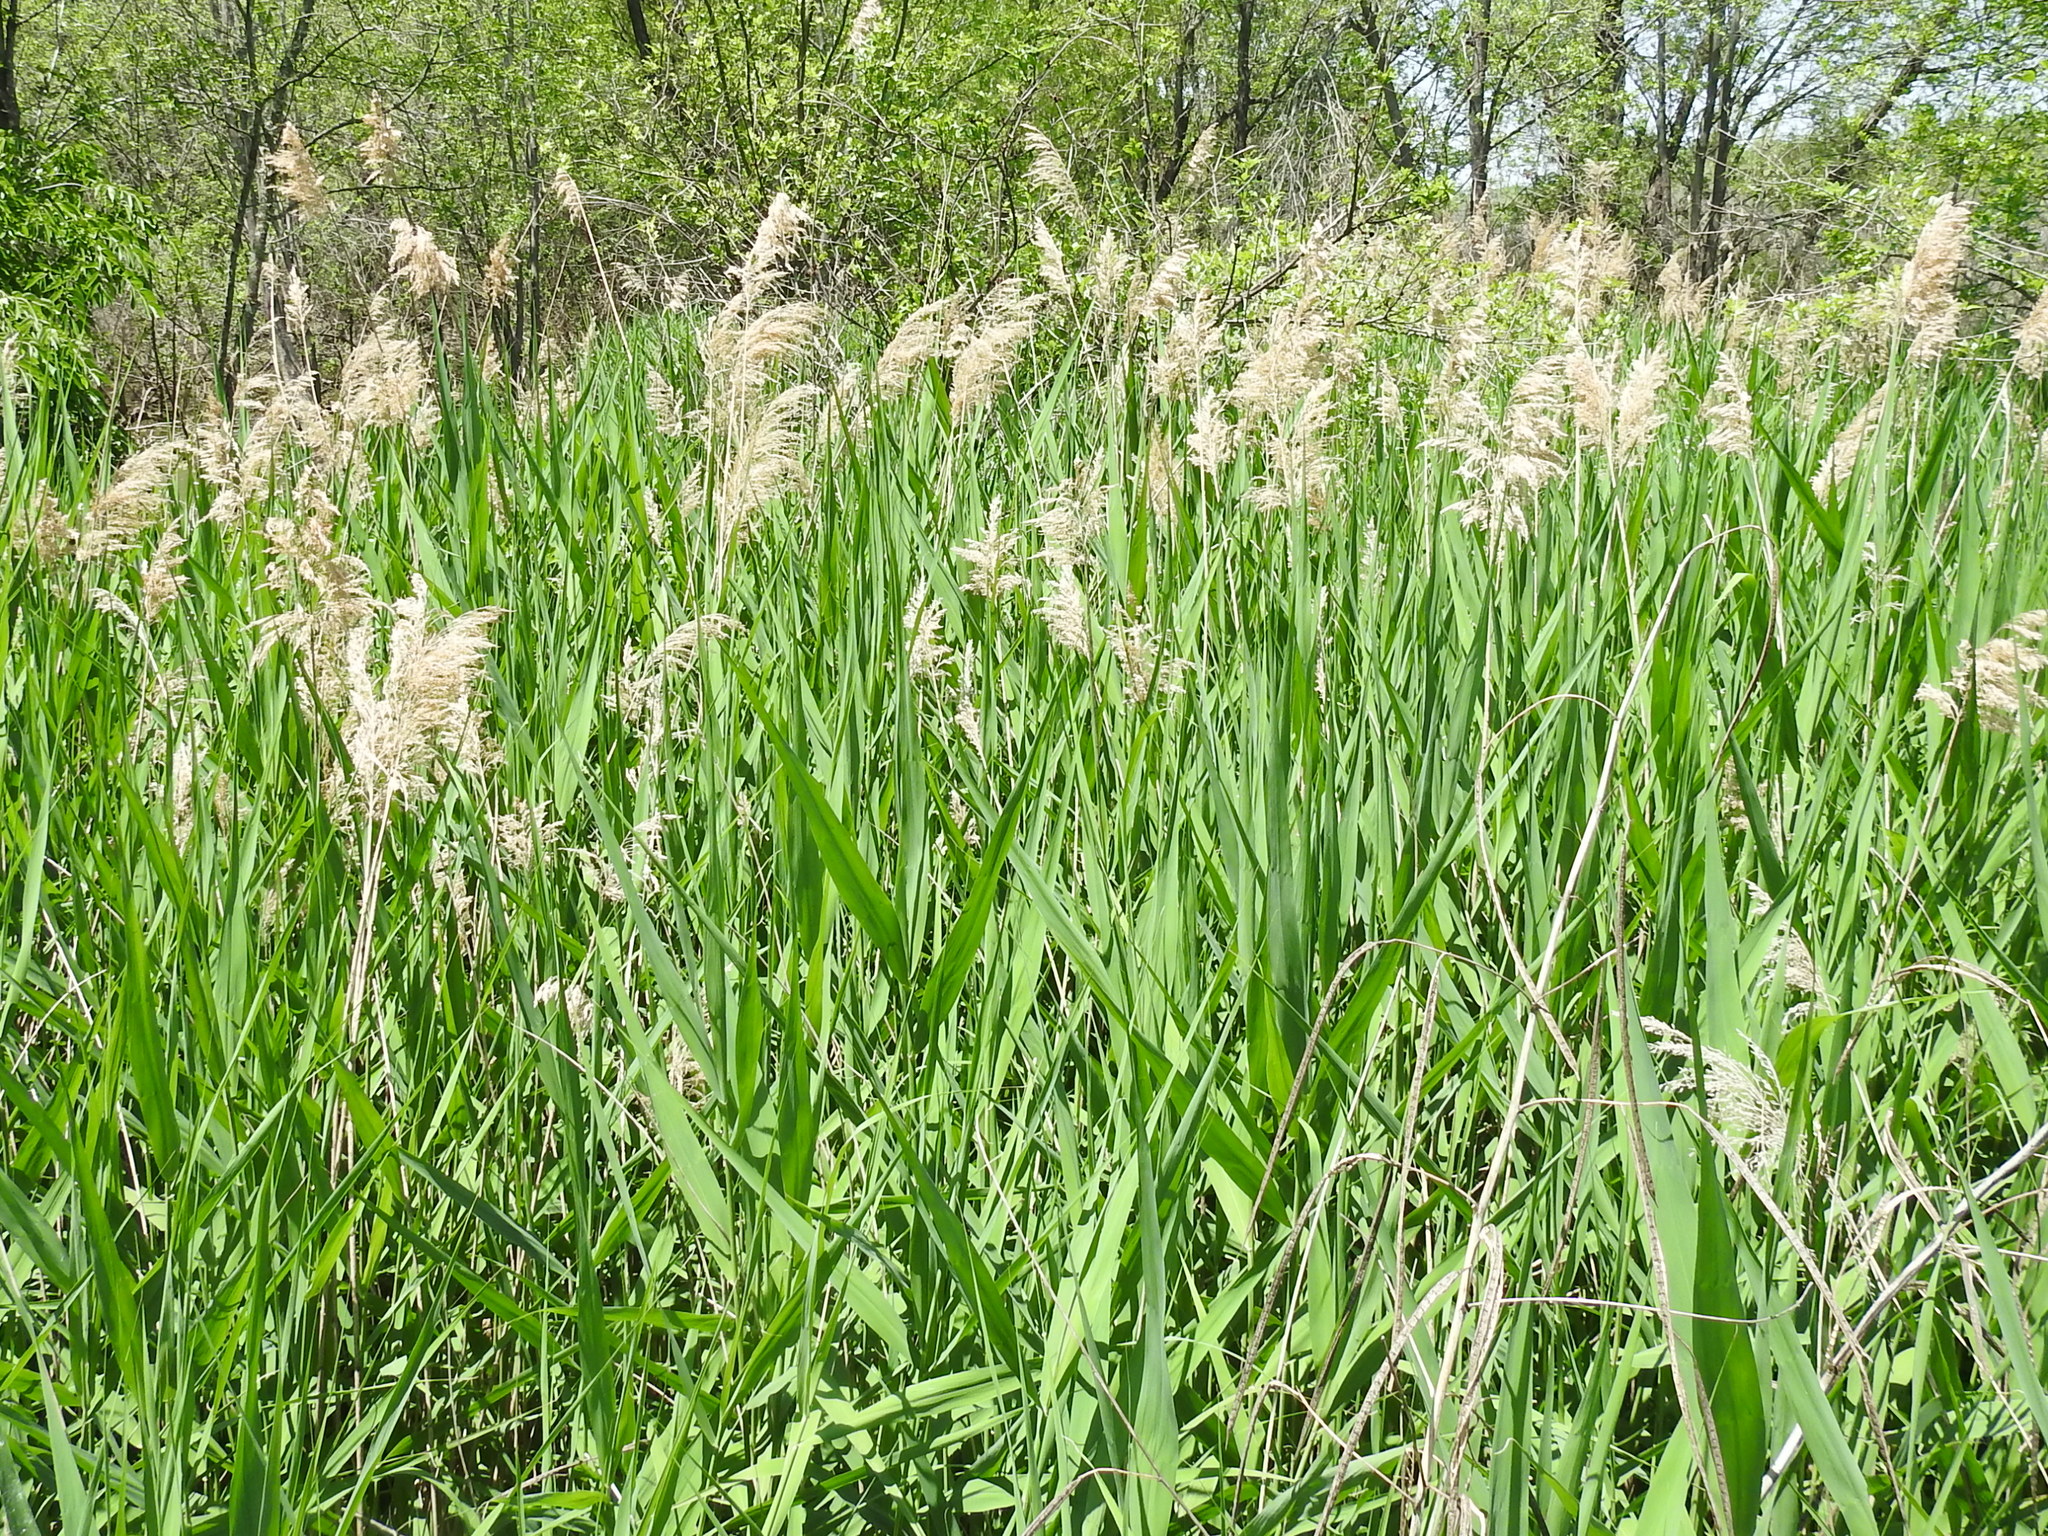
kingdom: Plantae
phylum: Tracheophyta
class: Liliopsida
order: Poales
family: Poaceae
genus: Phragmites
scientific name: Phragmites australis
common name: Common reed
